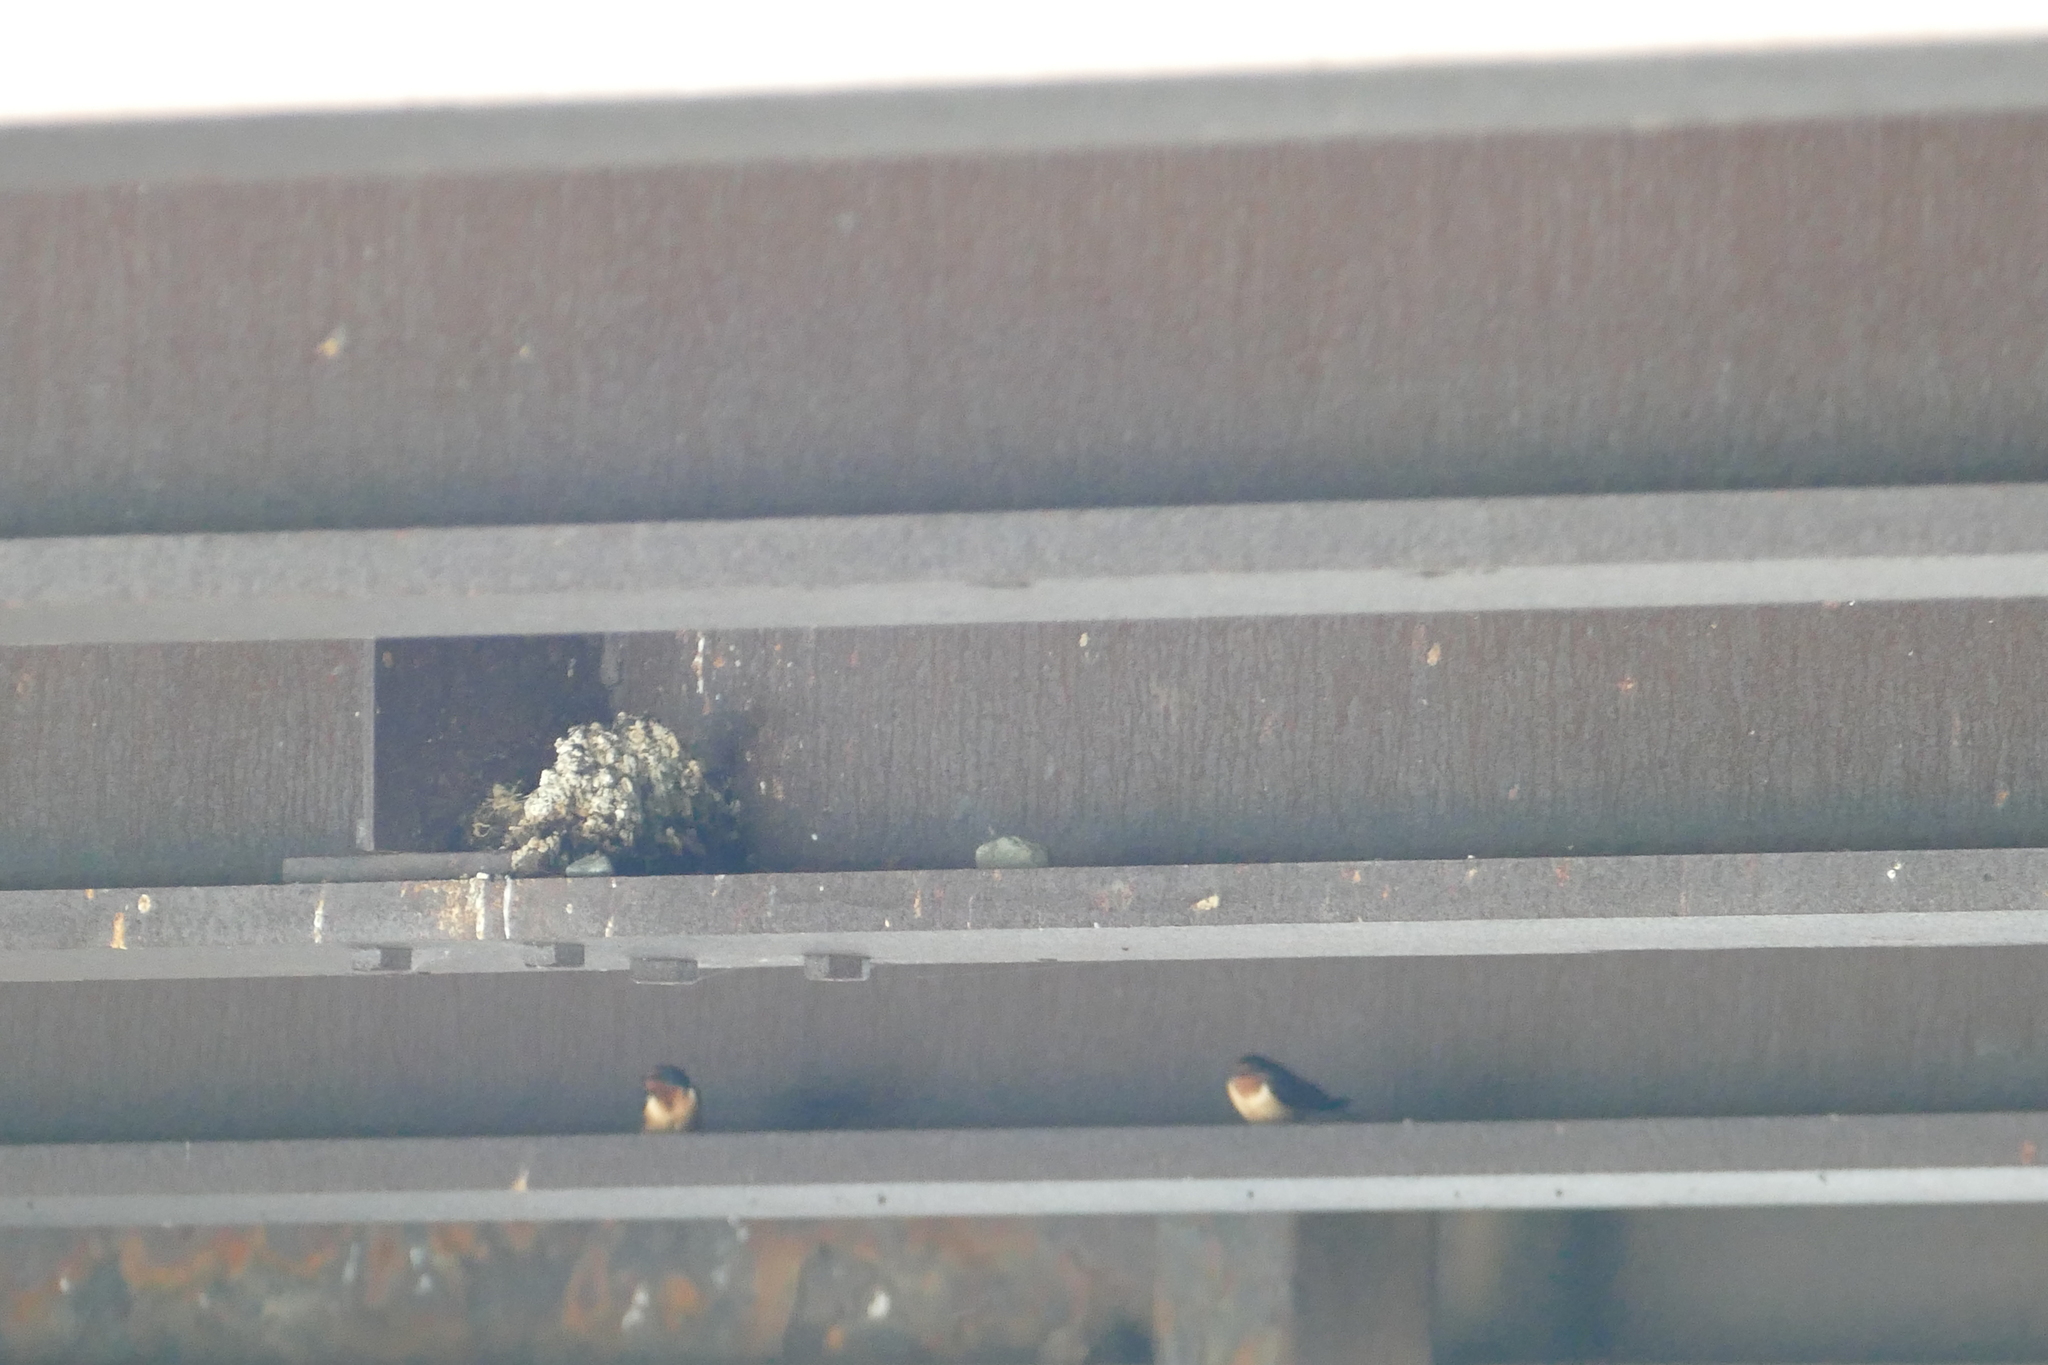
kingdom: Animalia
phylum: Chordata
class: Aves
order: Passeriformes
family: Hirundinidae
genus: Hirundo
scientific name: Hirundo rustica
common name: Barn swallow
